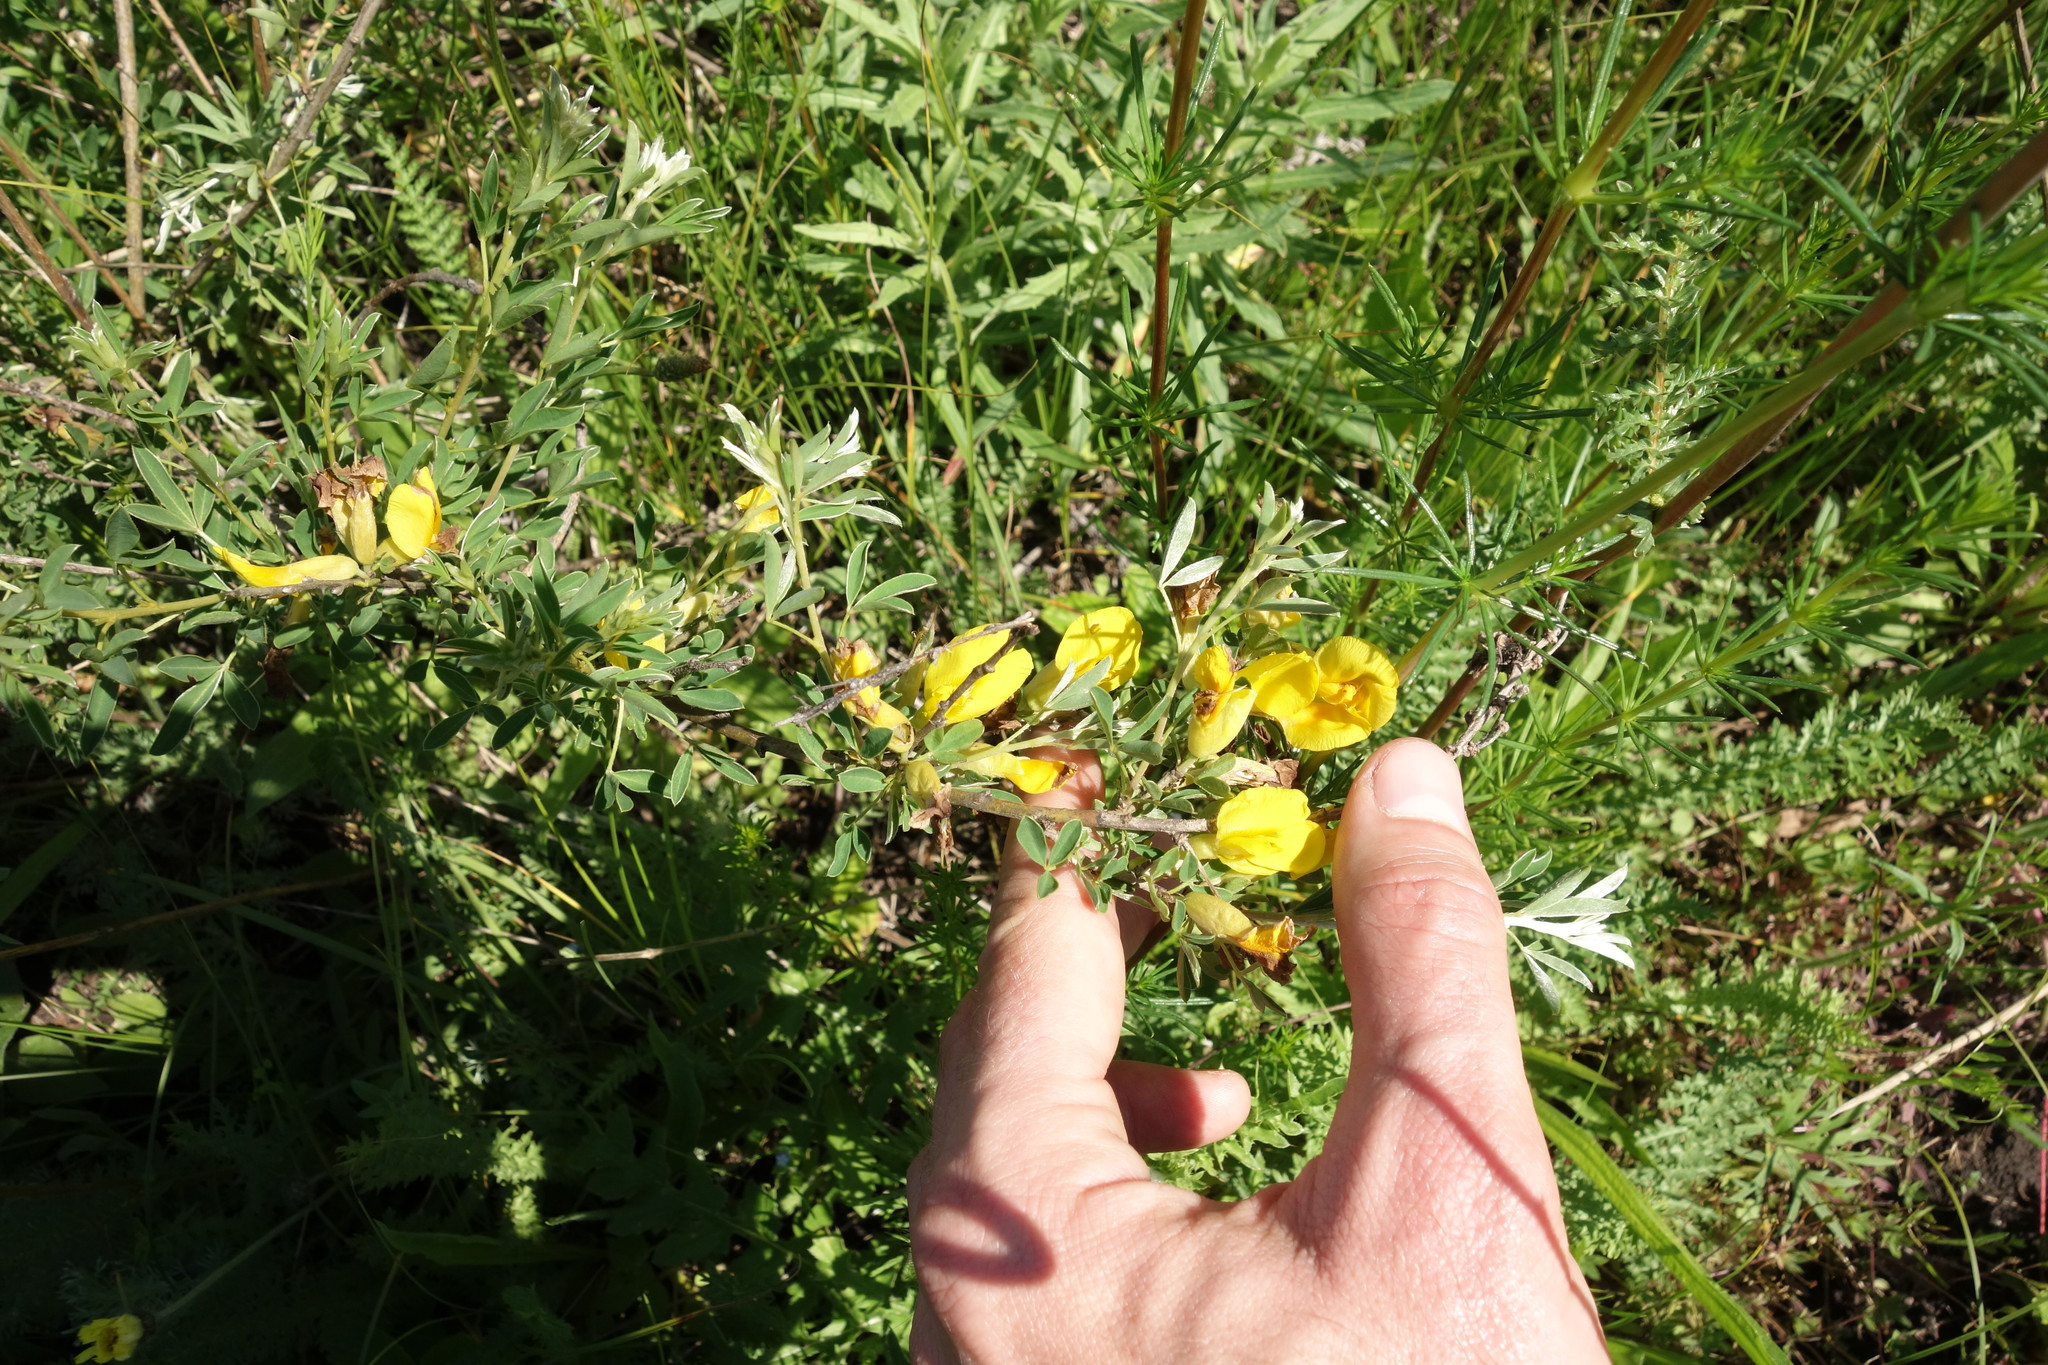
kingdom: Plantae
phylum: Tracheophyta
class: Magnoliopsida
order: Fabales
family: Fabaceae
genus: Chamaecytisus
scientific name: Chamaecytisus ruthenicus
